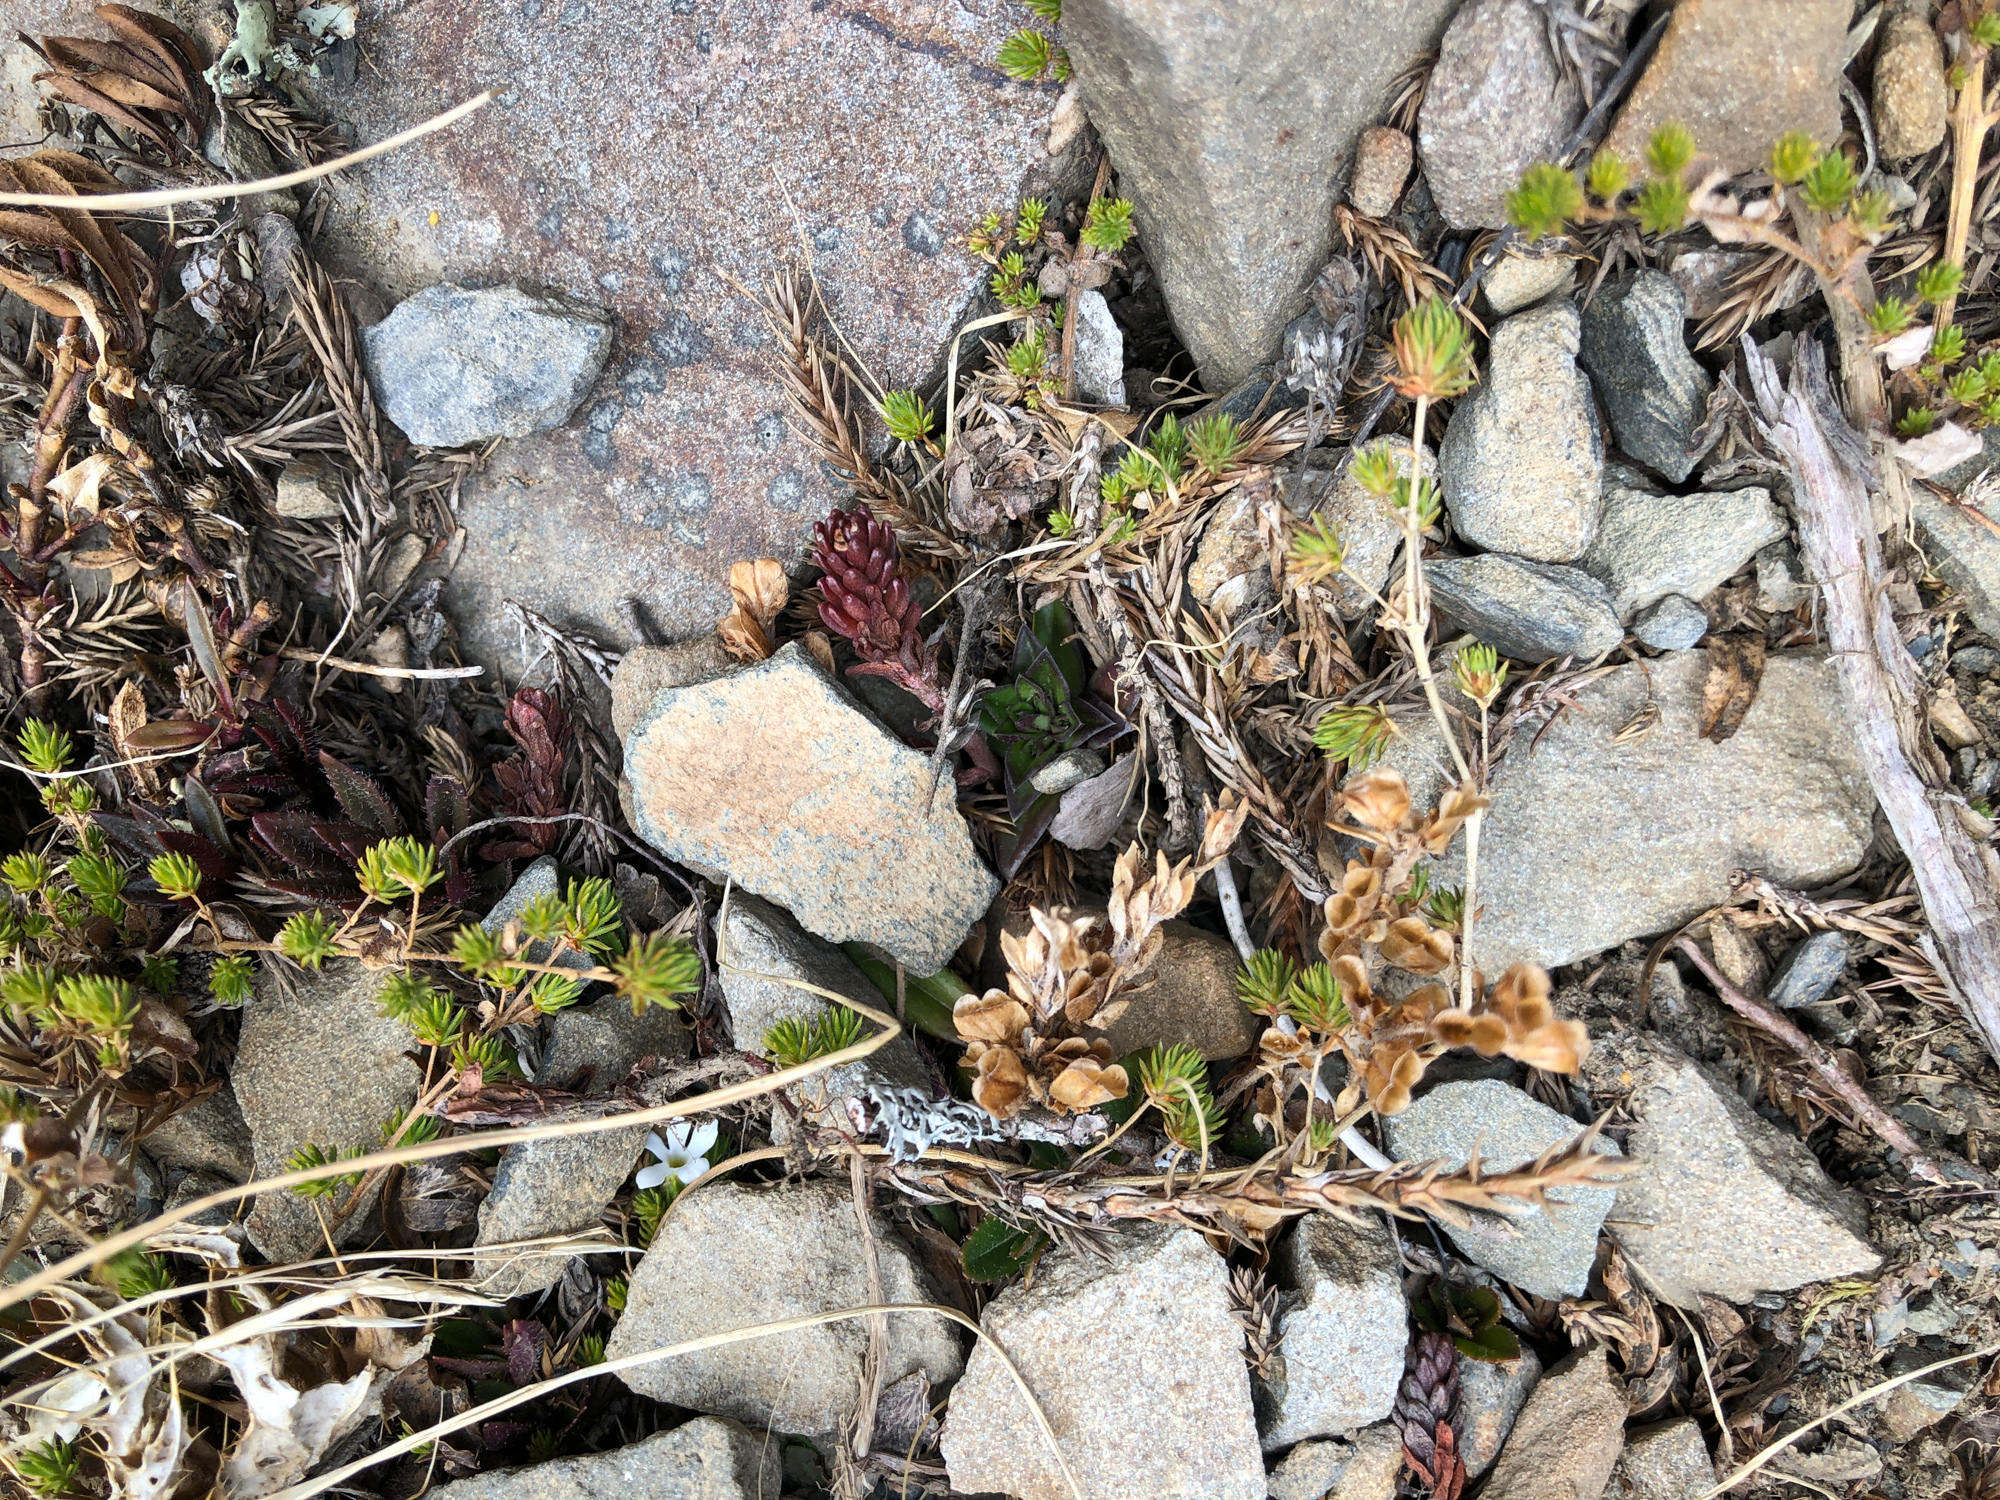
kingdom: Plantae
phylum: Tracheophyta
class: Magnoliopsida
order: Lamiales
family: Plantaginaceae
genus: Hemiphragma
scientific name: Hemiphragma heterophyllum
